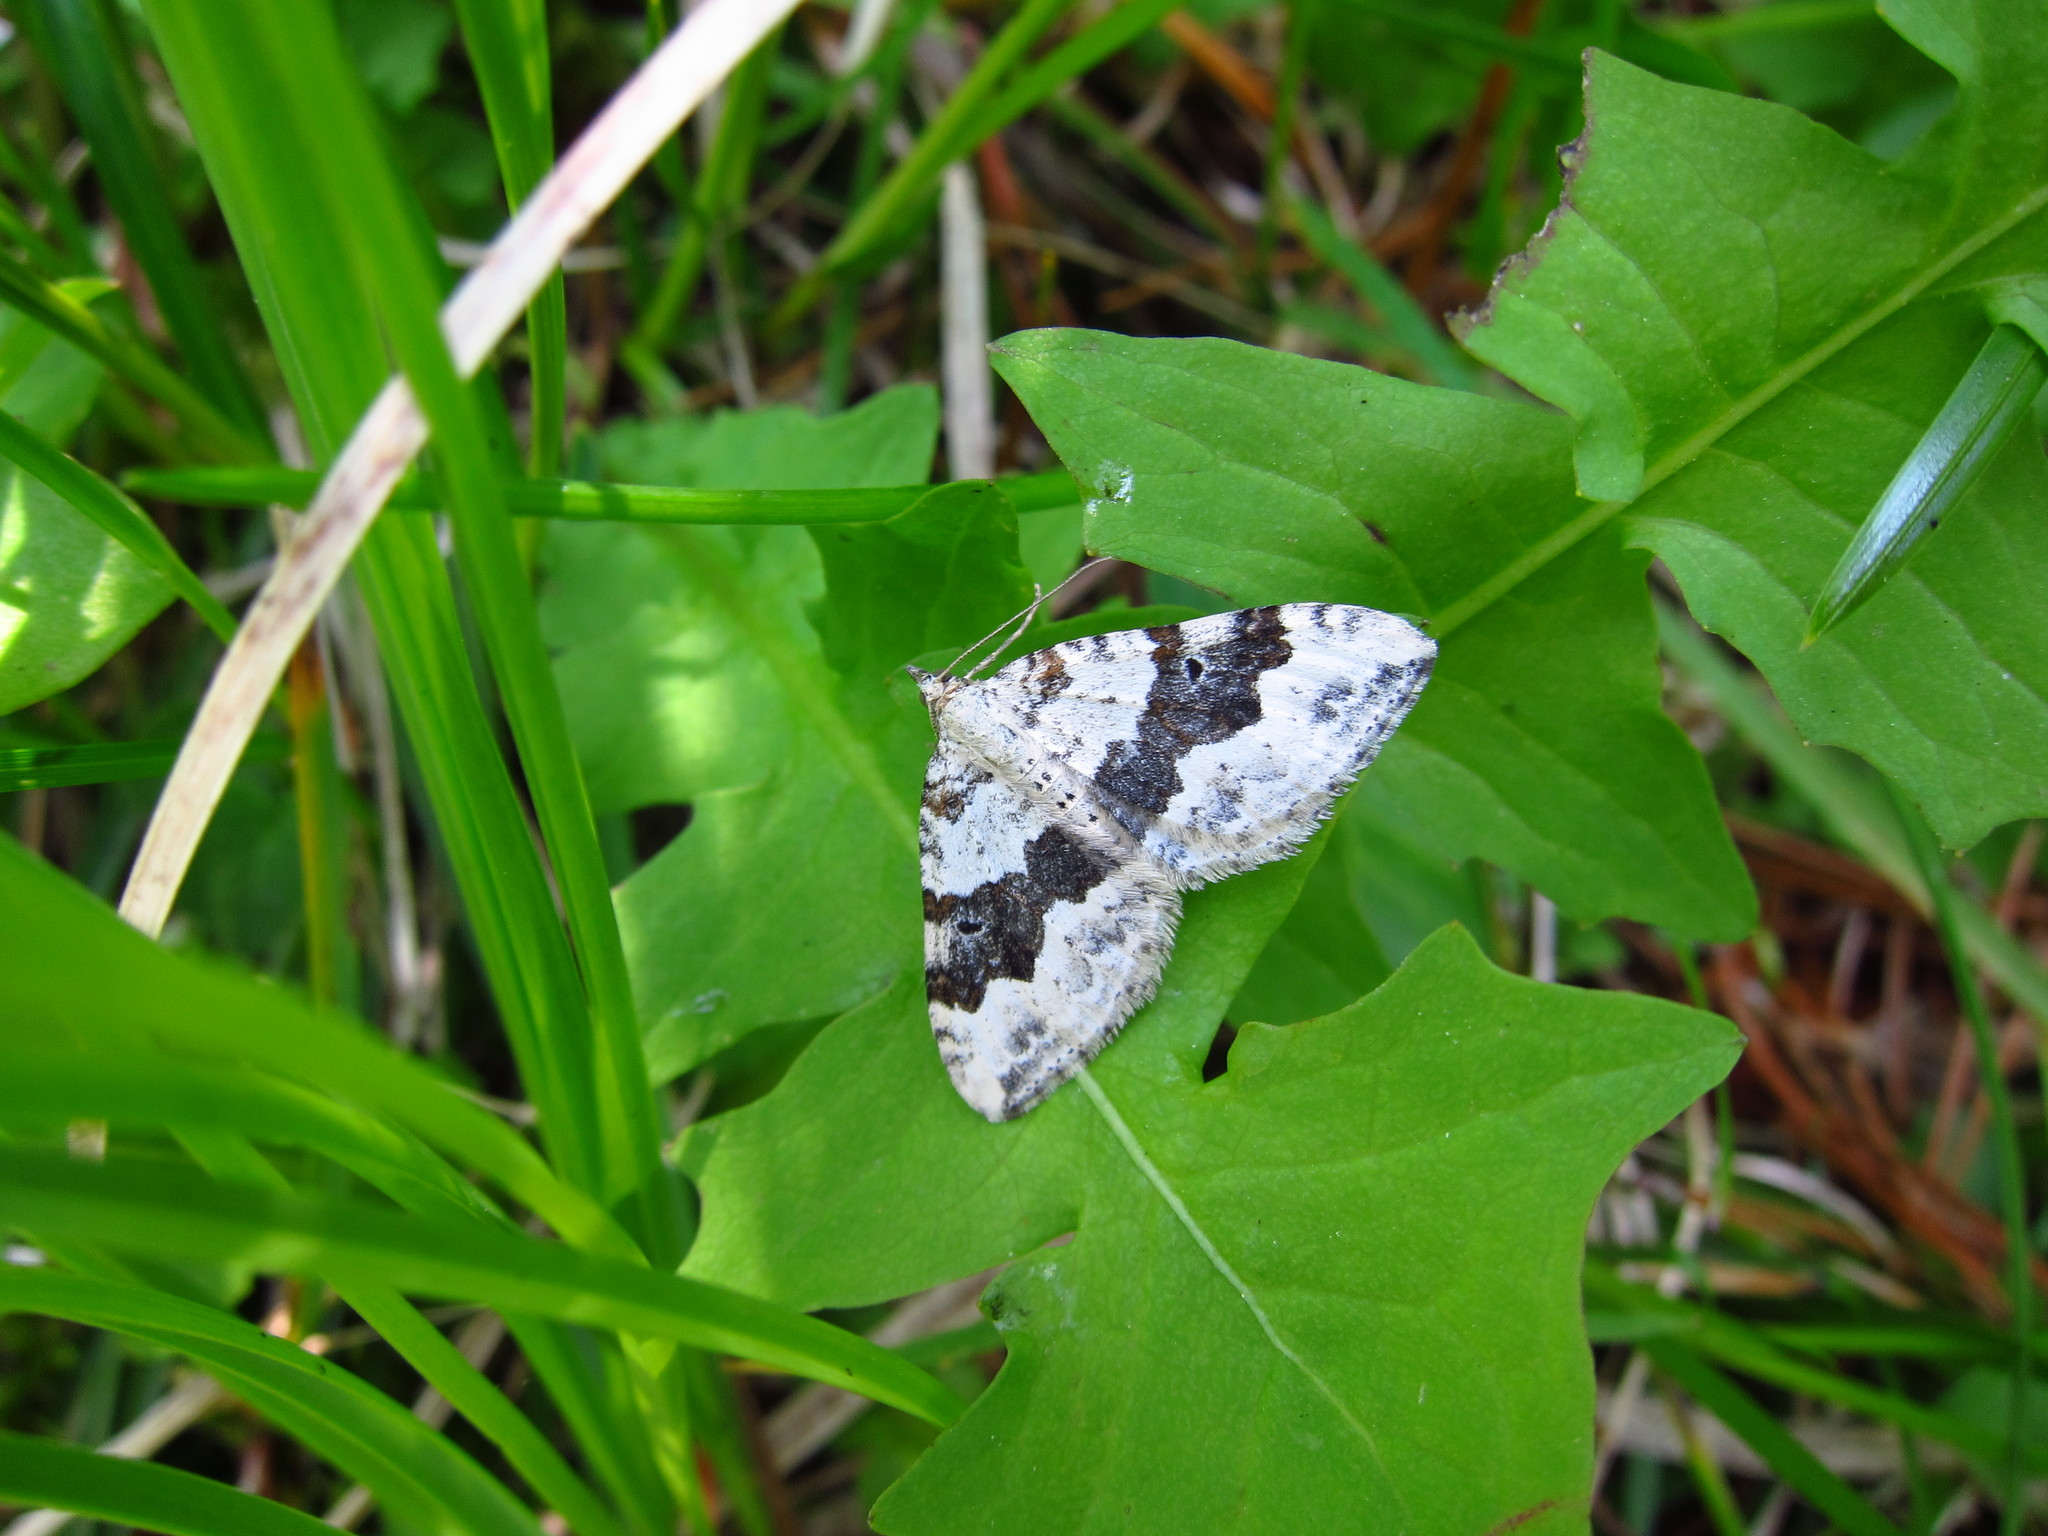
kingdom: Animalia
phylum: Arthropoda
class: Insecta
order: Lepidoptera
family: Geometridae
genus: Xanthorhoe
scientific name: Xanthorhoe montanata
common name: Silver-ground carpet
